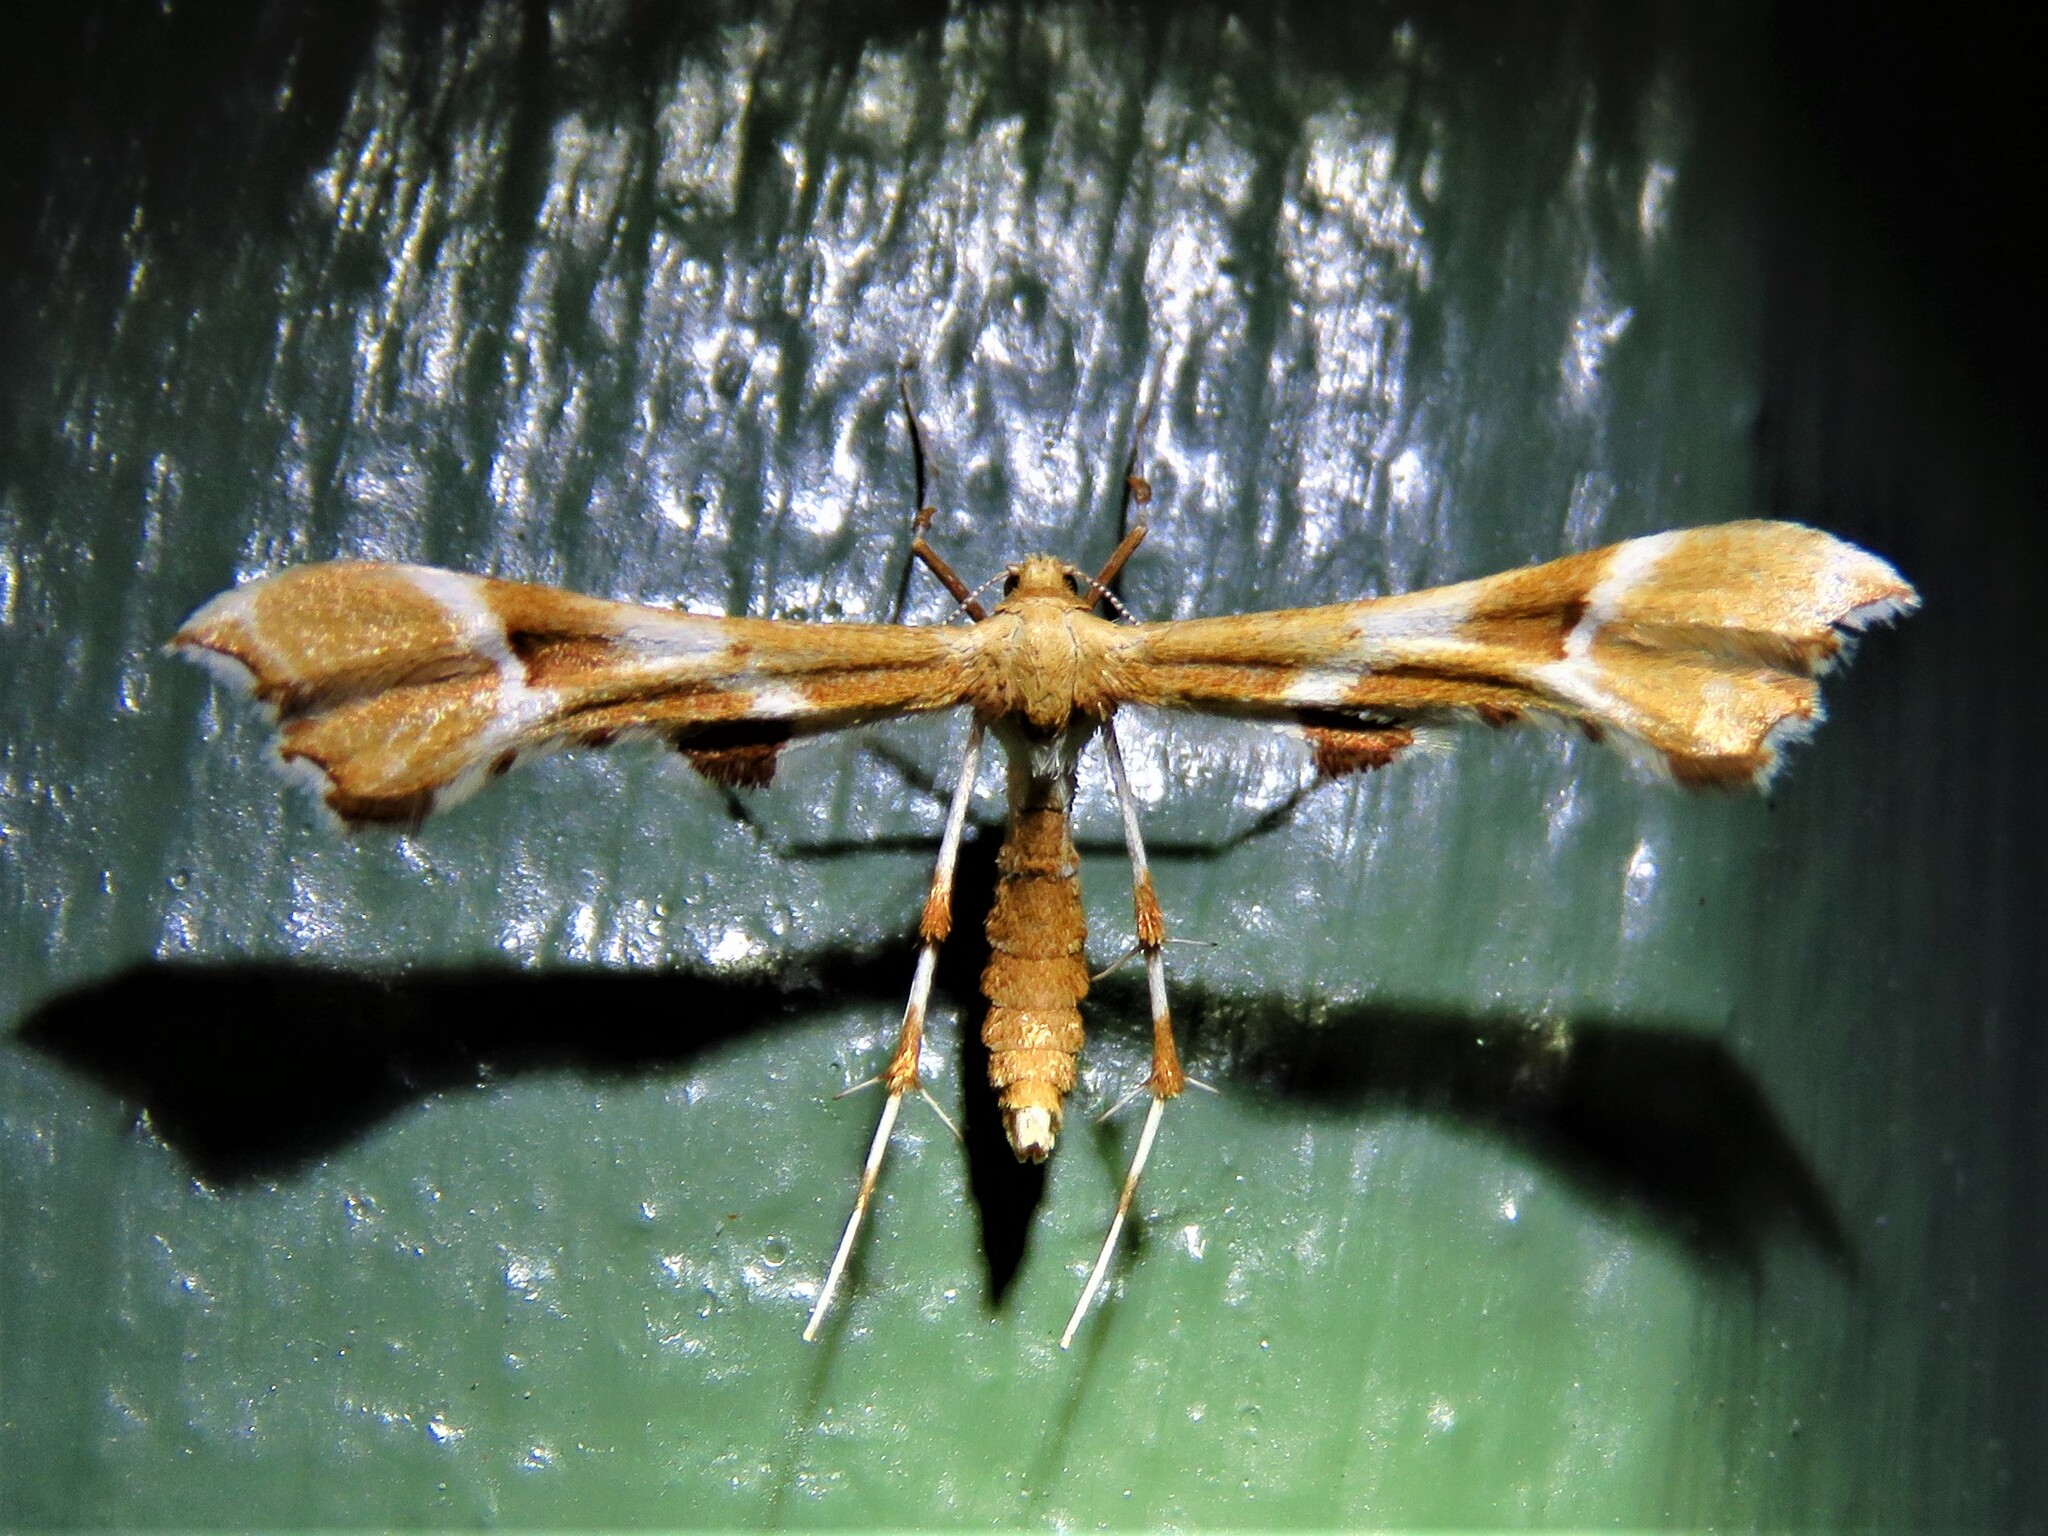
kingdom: Animalia
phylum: Arthropoda
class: Insecta
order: Lepidoptera
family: Pterophoridae
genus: Cnaemidophorus
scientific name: Cnaemidophorus rhododactyla
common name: Rose plume
